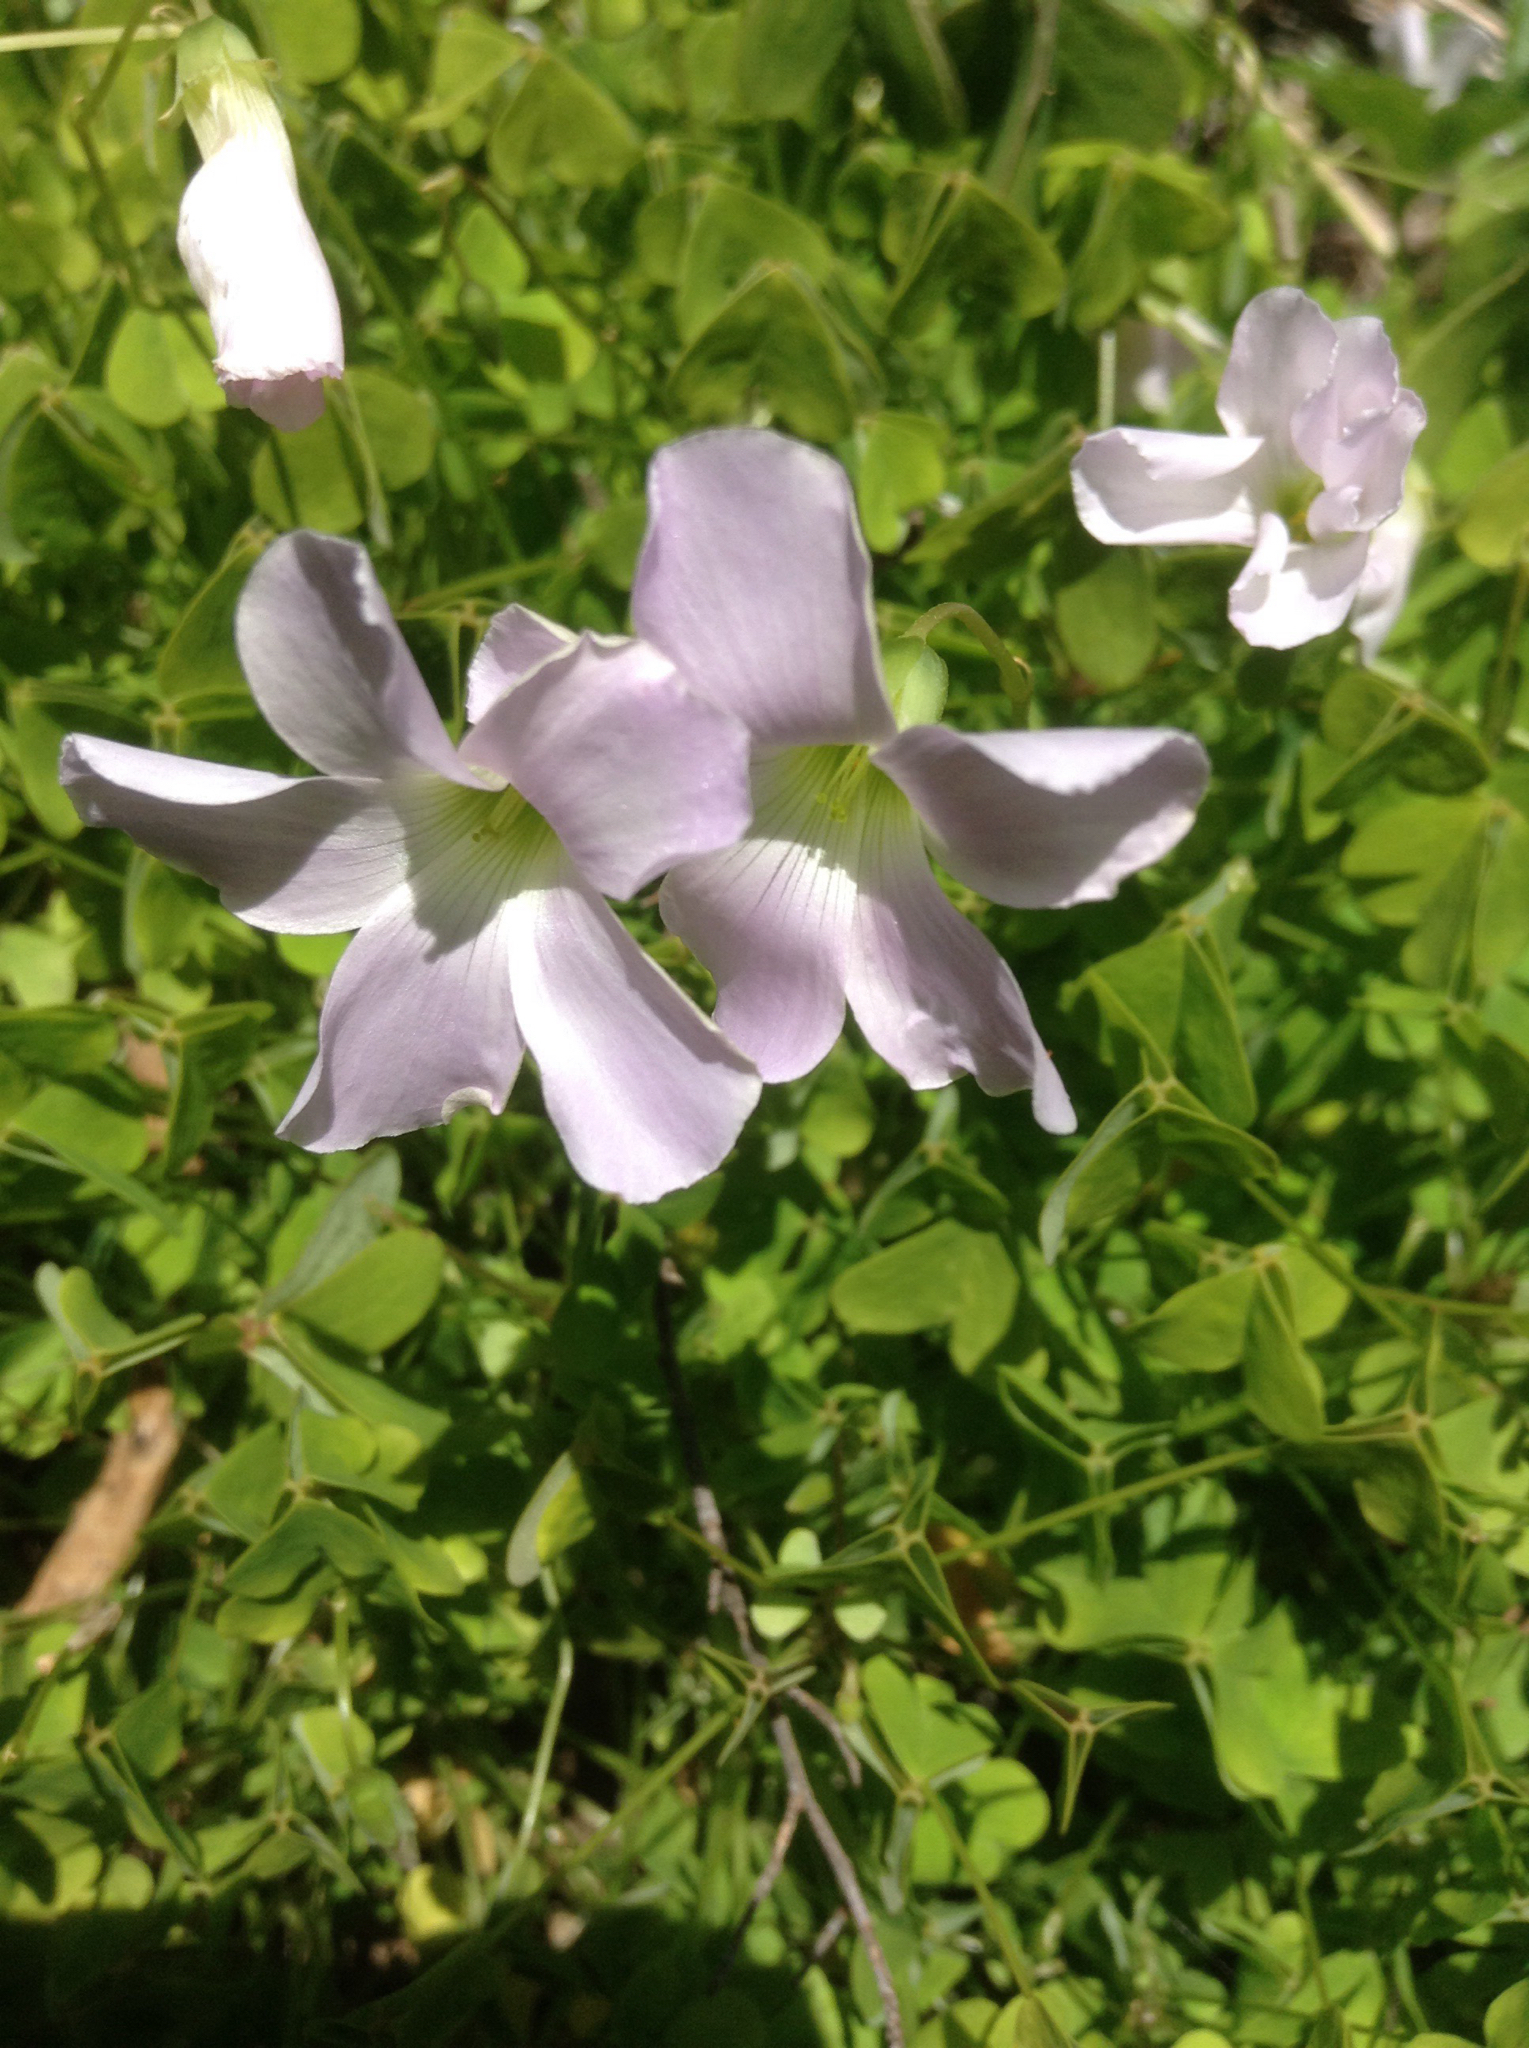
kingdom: Plantae
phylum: Tracheophyta
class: Magnoliopsida
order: Oxalidales
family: Oxalidaceae
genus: Oxalis
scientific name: Oxalis incarnata
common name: Pale pink-sorrel
